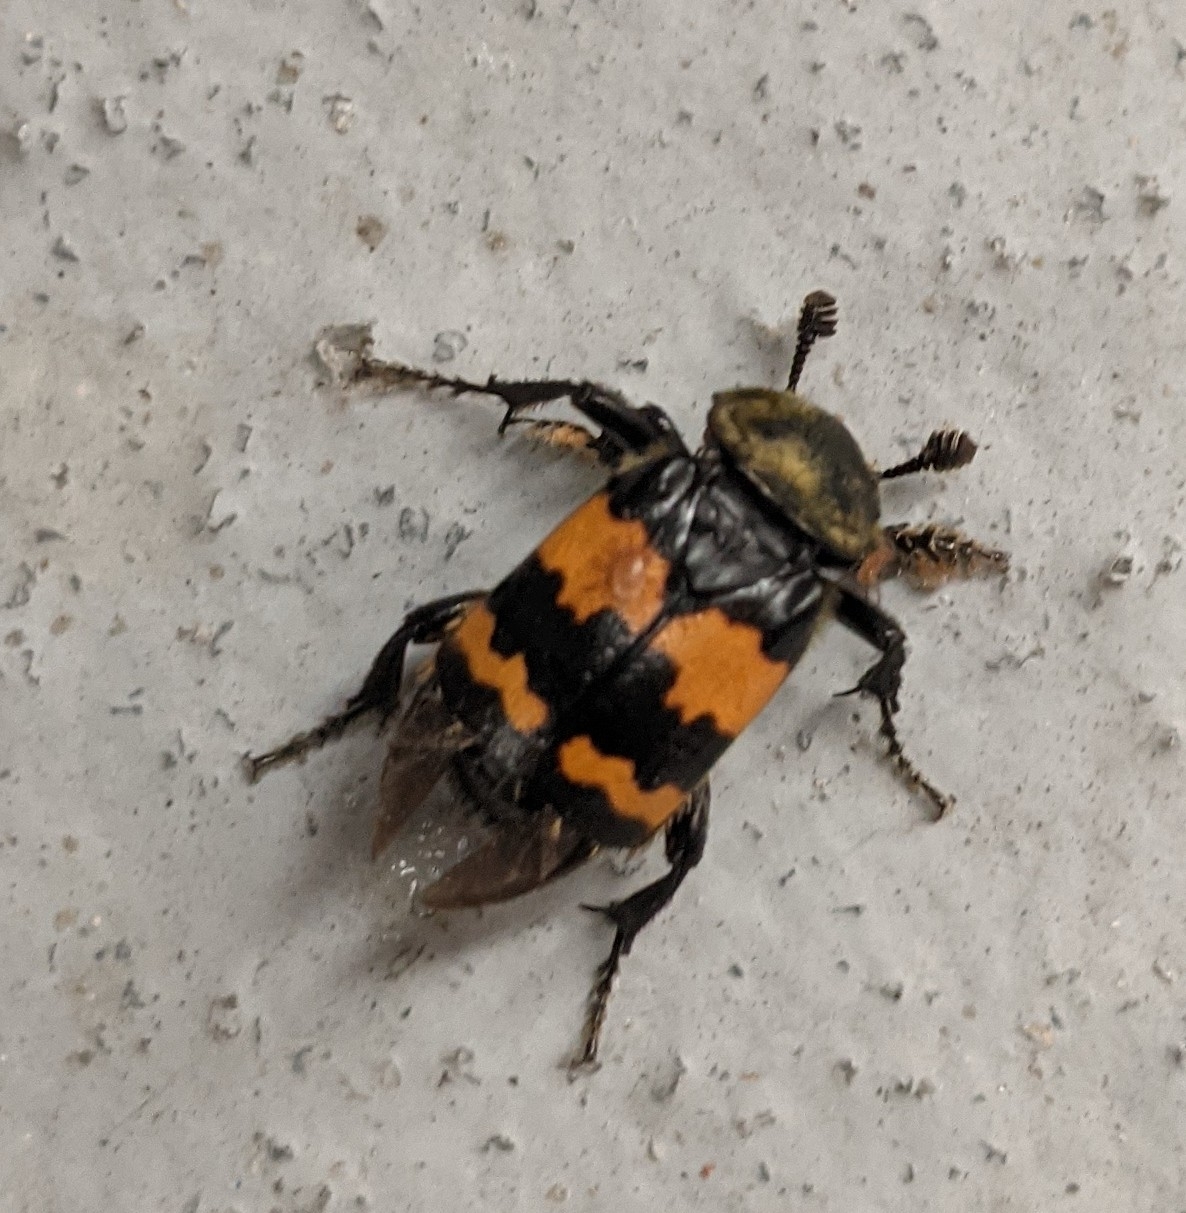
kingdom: Animalia
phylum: Arthropoda
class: Insecta
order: Coleoptera
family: Staphylinidae
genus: Nicrophorus
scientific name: Nicrophorus tomentosus
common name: Tomentose burying beetle
